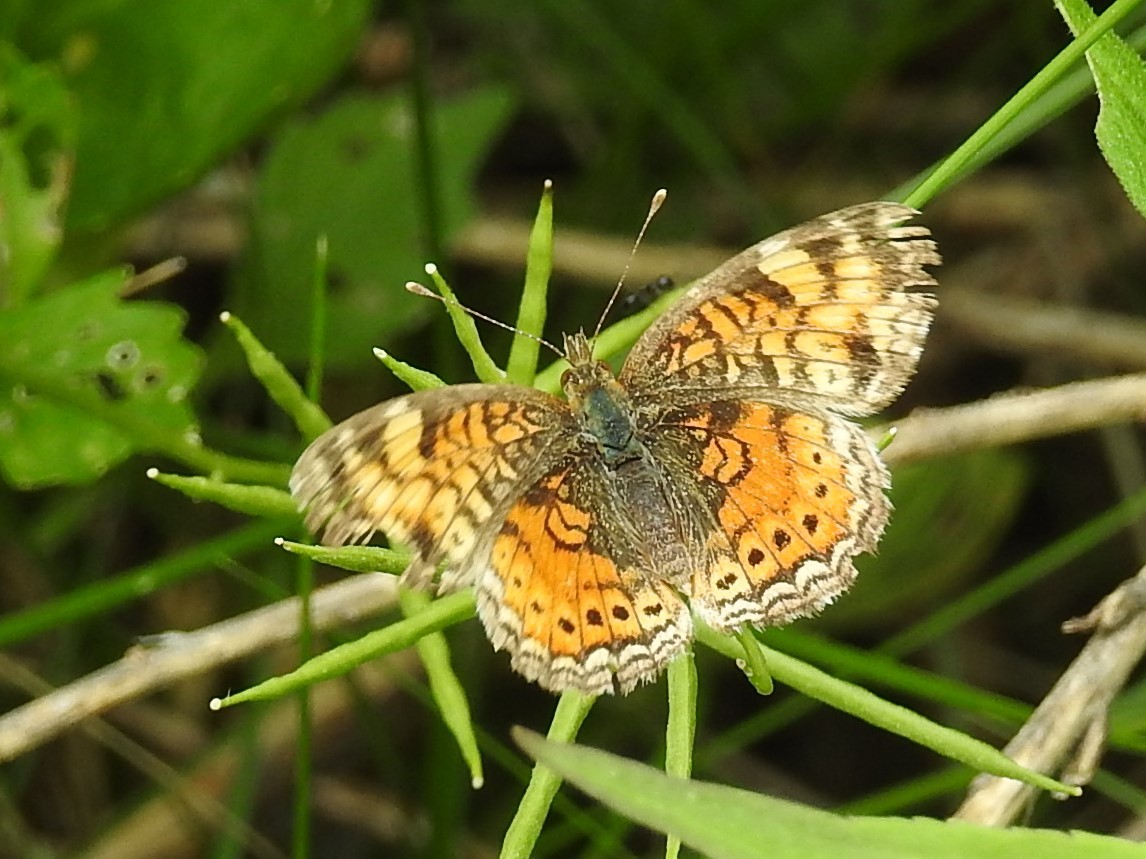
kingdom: Animalia
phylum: Arthropoda
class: Insecta
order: Lepidoptera
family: Nymphalidae
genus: Phyciodes
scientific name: Phyciodes tharos
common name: Pearl crescent
